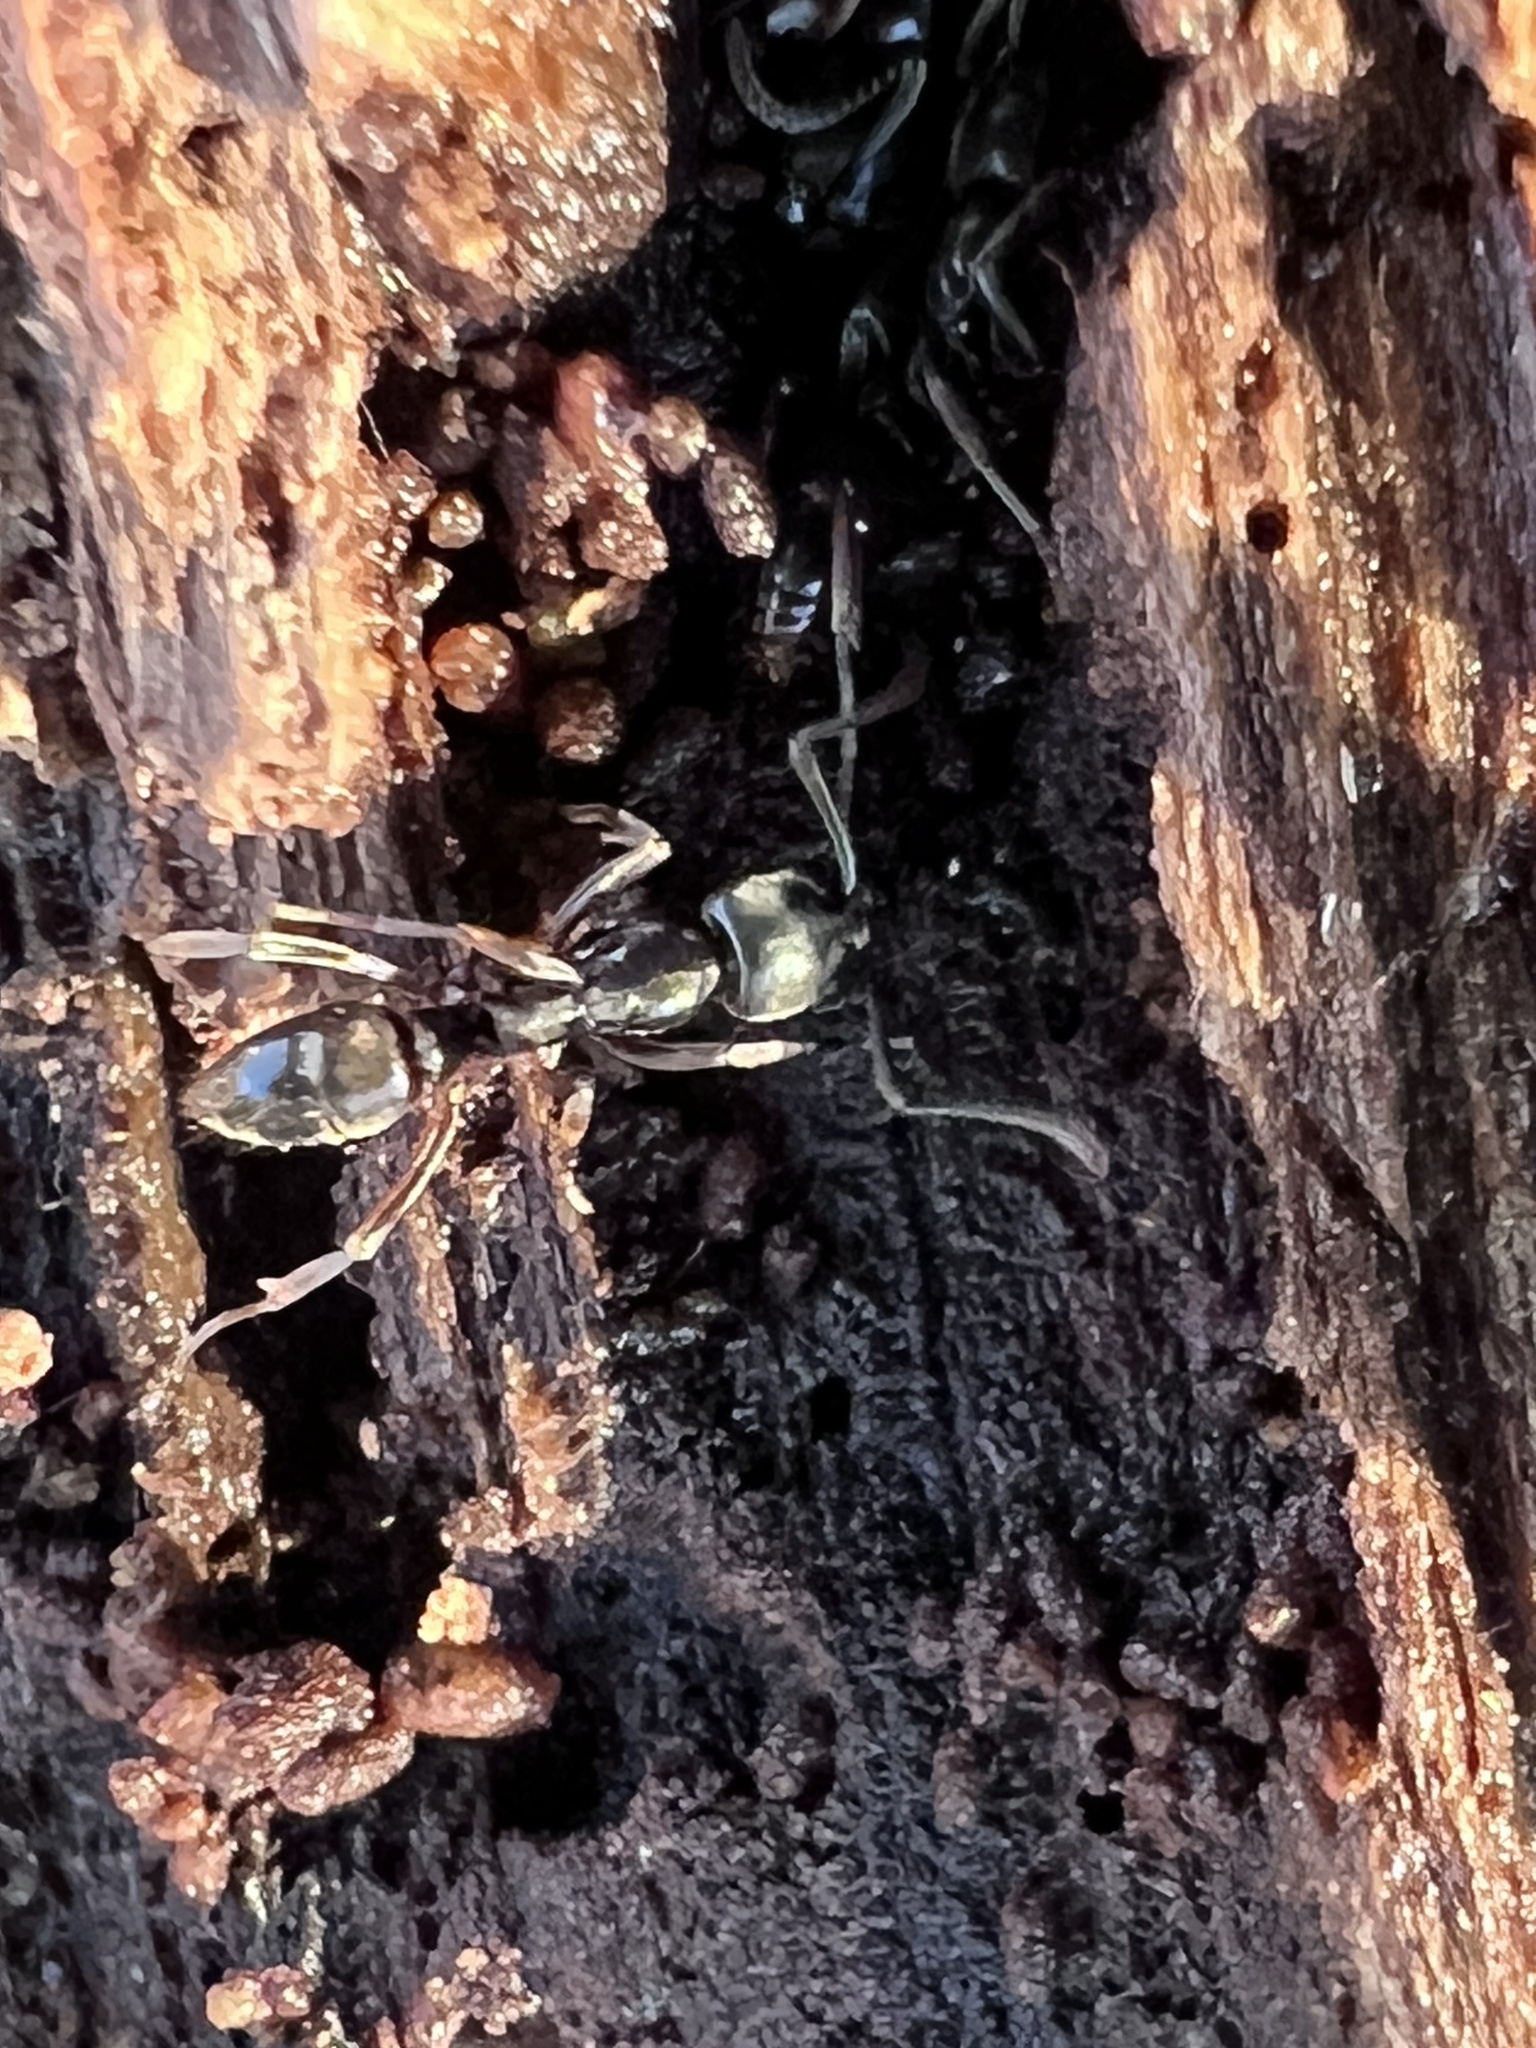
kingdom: Animalia
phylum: Arthropoda
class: Insecta
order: Hymenoptera
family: Formicidae
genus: Pachycondyla
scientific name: Pachycondyla chinensis
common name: Asian needle ant
